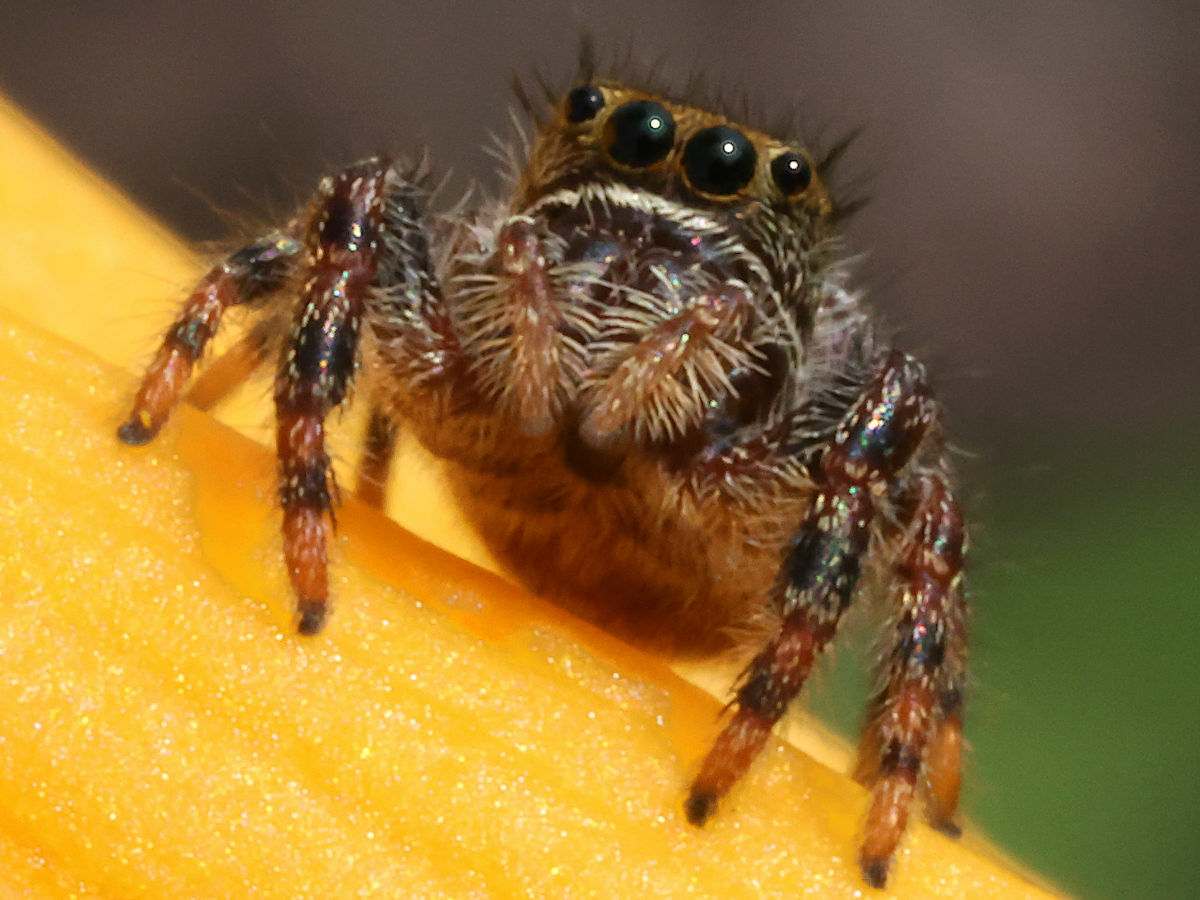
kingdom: Animalia
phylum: Arthropoda
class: Arachnida
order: Araneae
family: Salticidae
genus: Phidippus
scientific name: Phidippus audax
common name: Bold jumper
